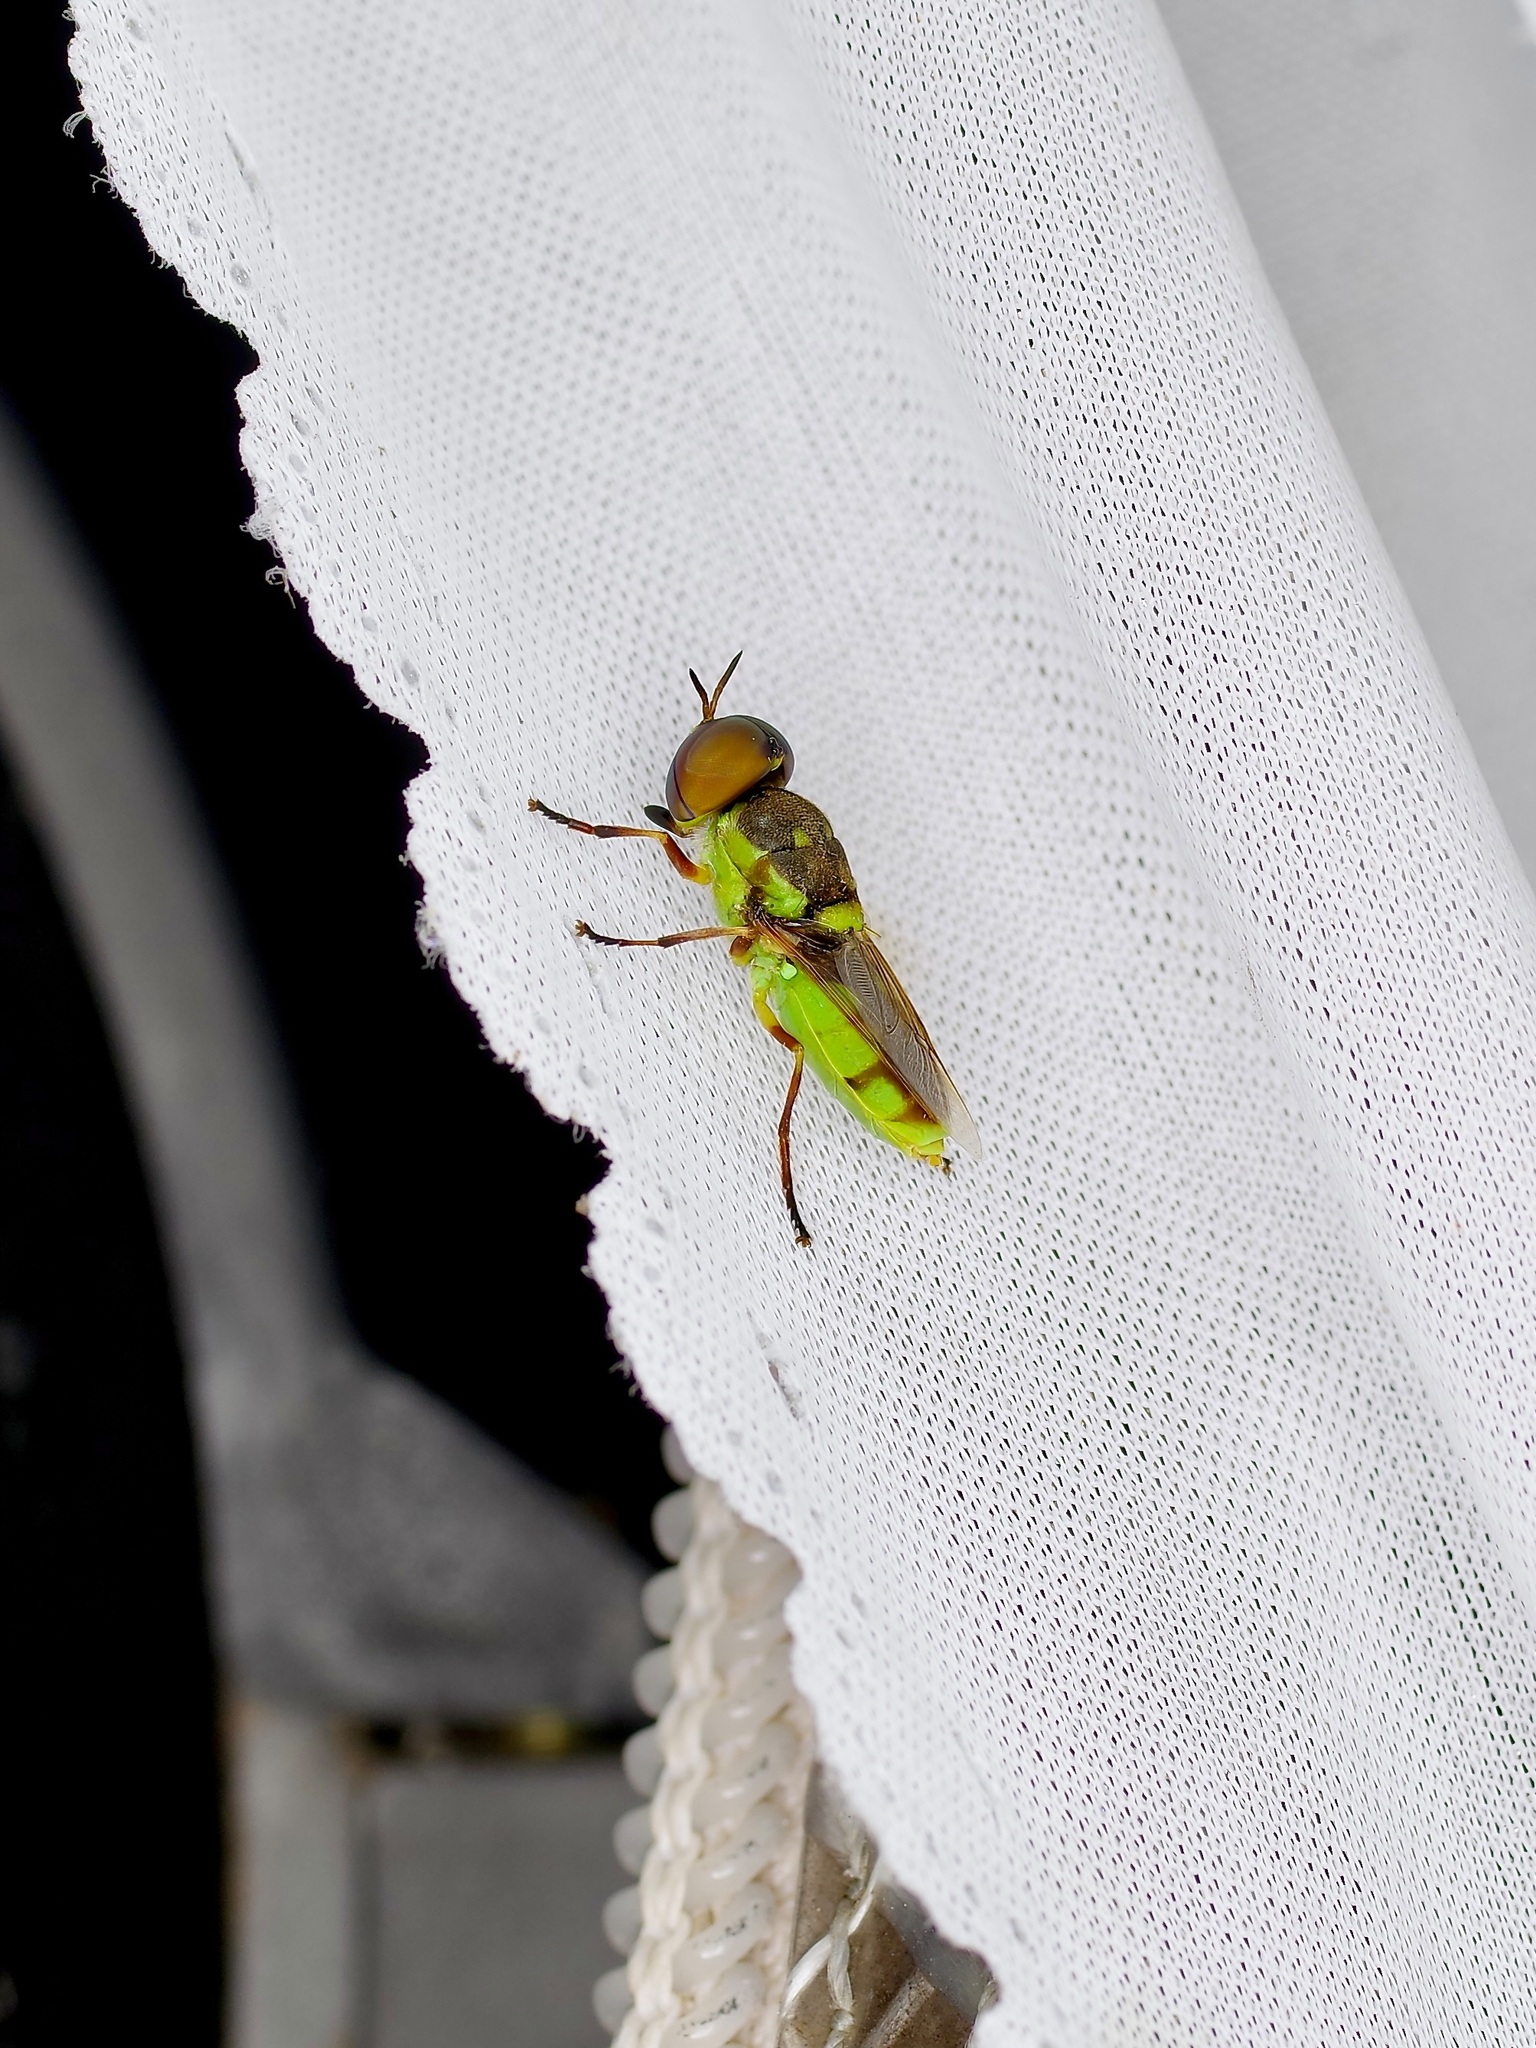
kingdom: Animalia
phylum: Arthropoda
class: Insecta
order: Diptera
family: Stratiomyidae
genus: Hedriodiscus
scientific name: Hedriodiscus binotatus
